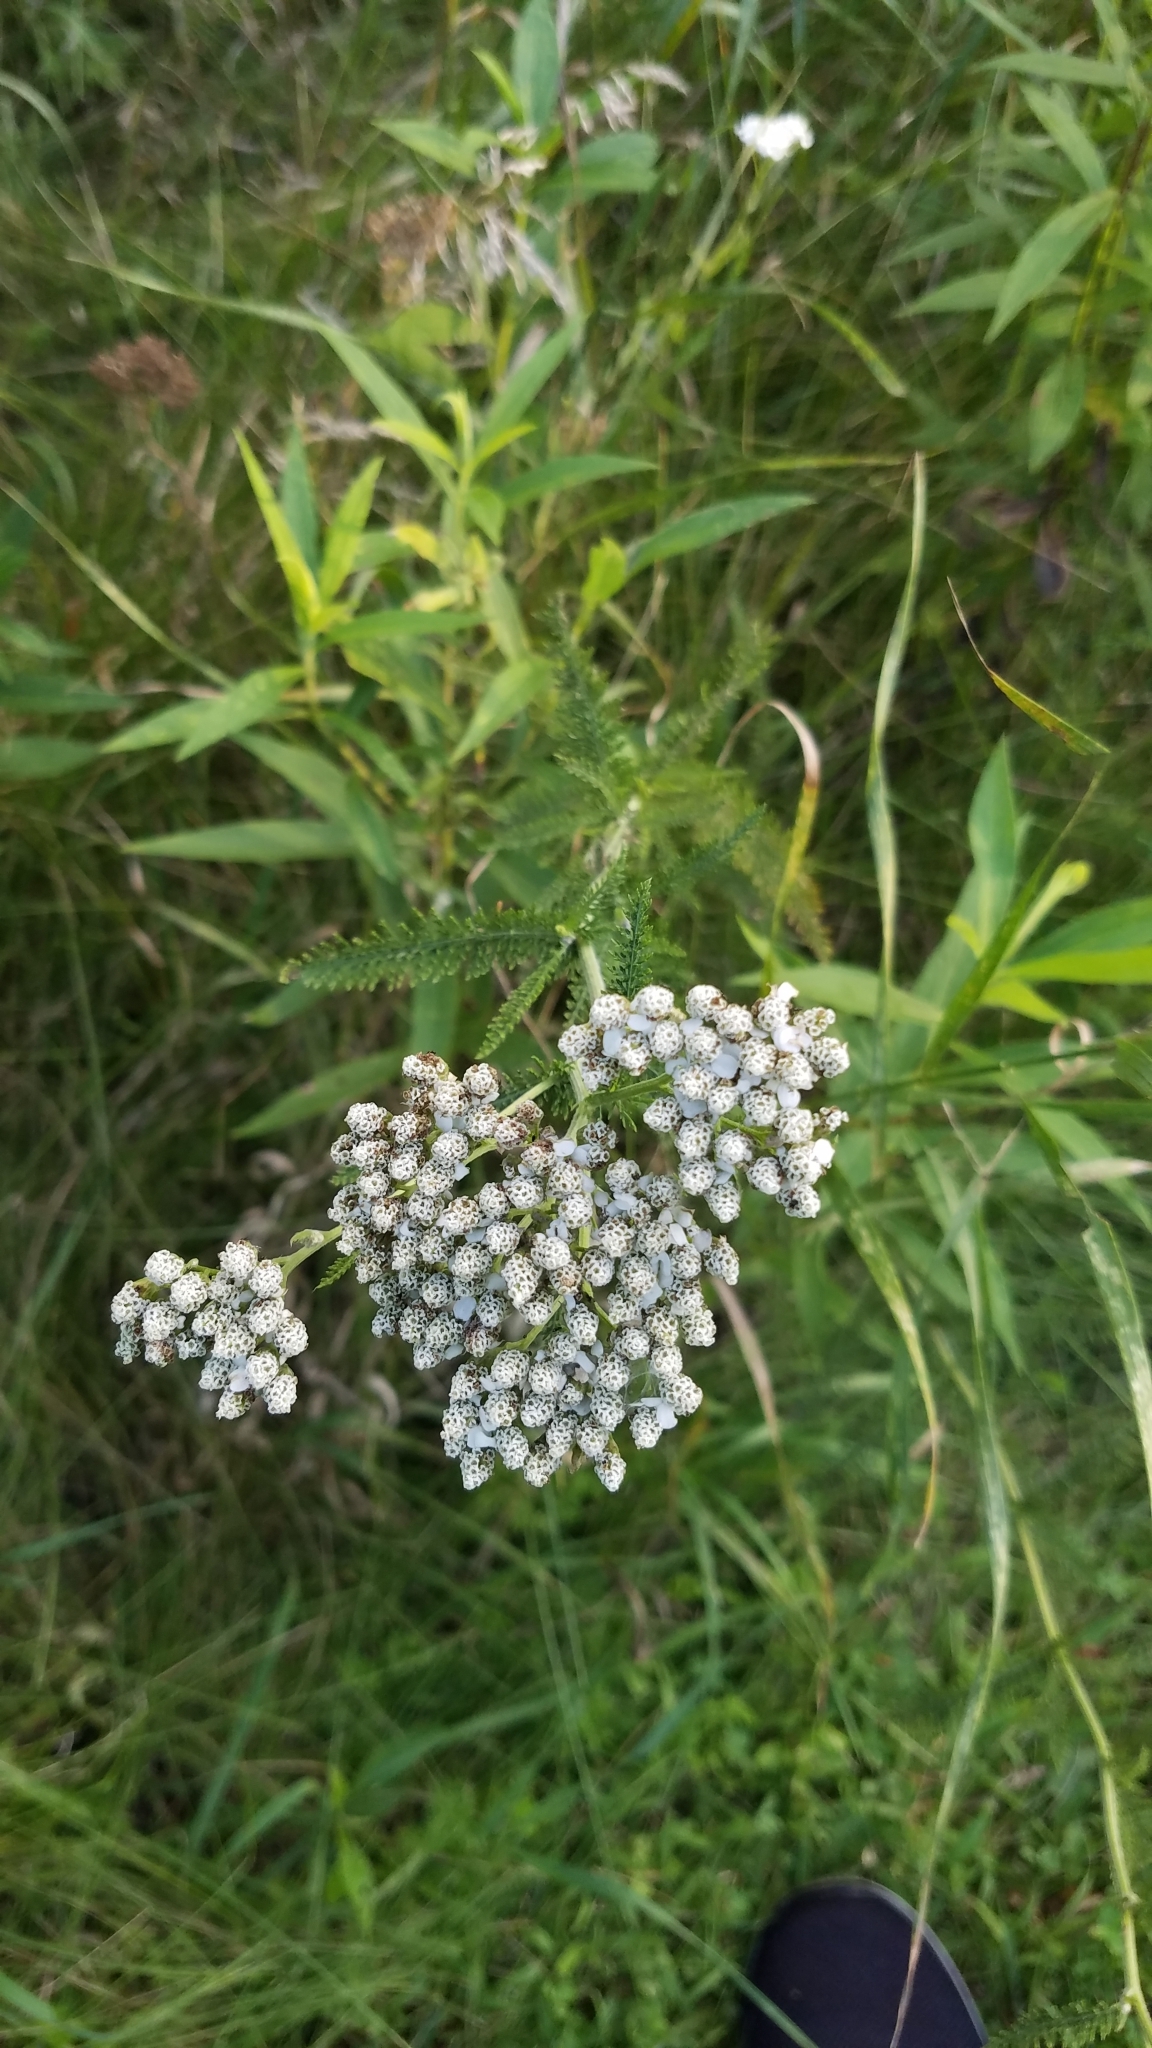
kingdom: Plantae
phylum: Tracheophyta
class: Magnoliopsida
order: Asterales
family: Asteraceae
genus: Achillea
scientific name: Achillea millefolium
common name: Yarrow
